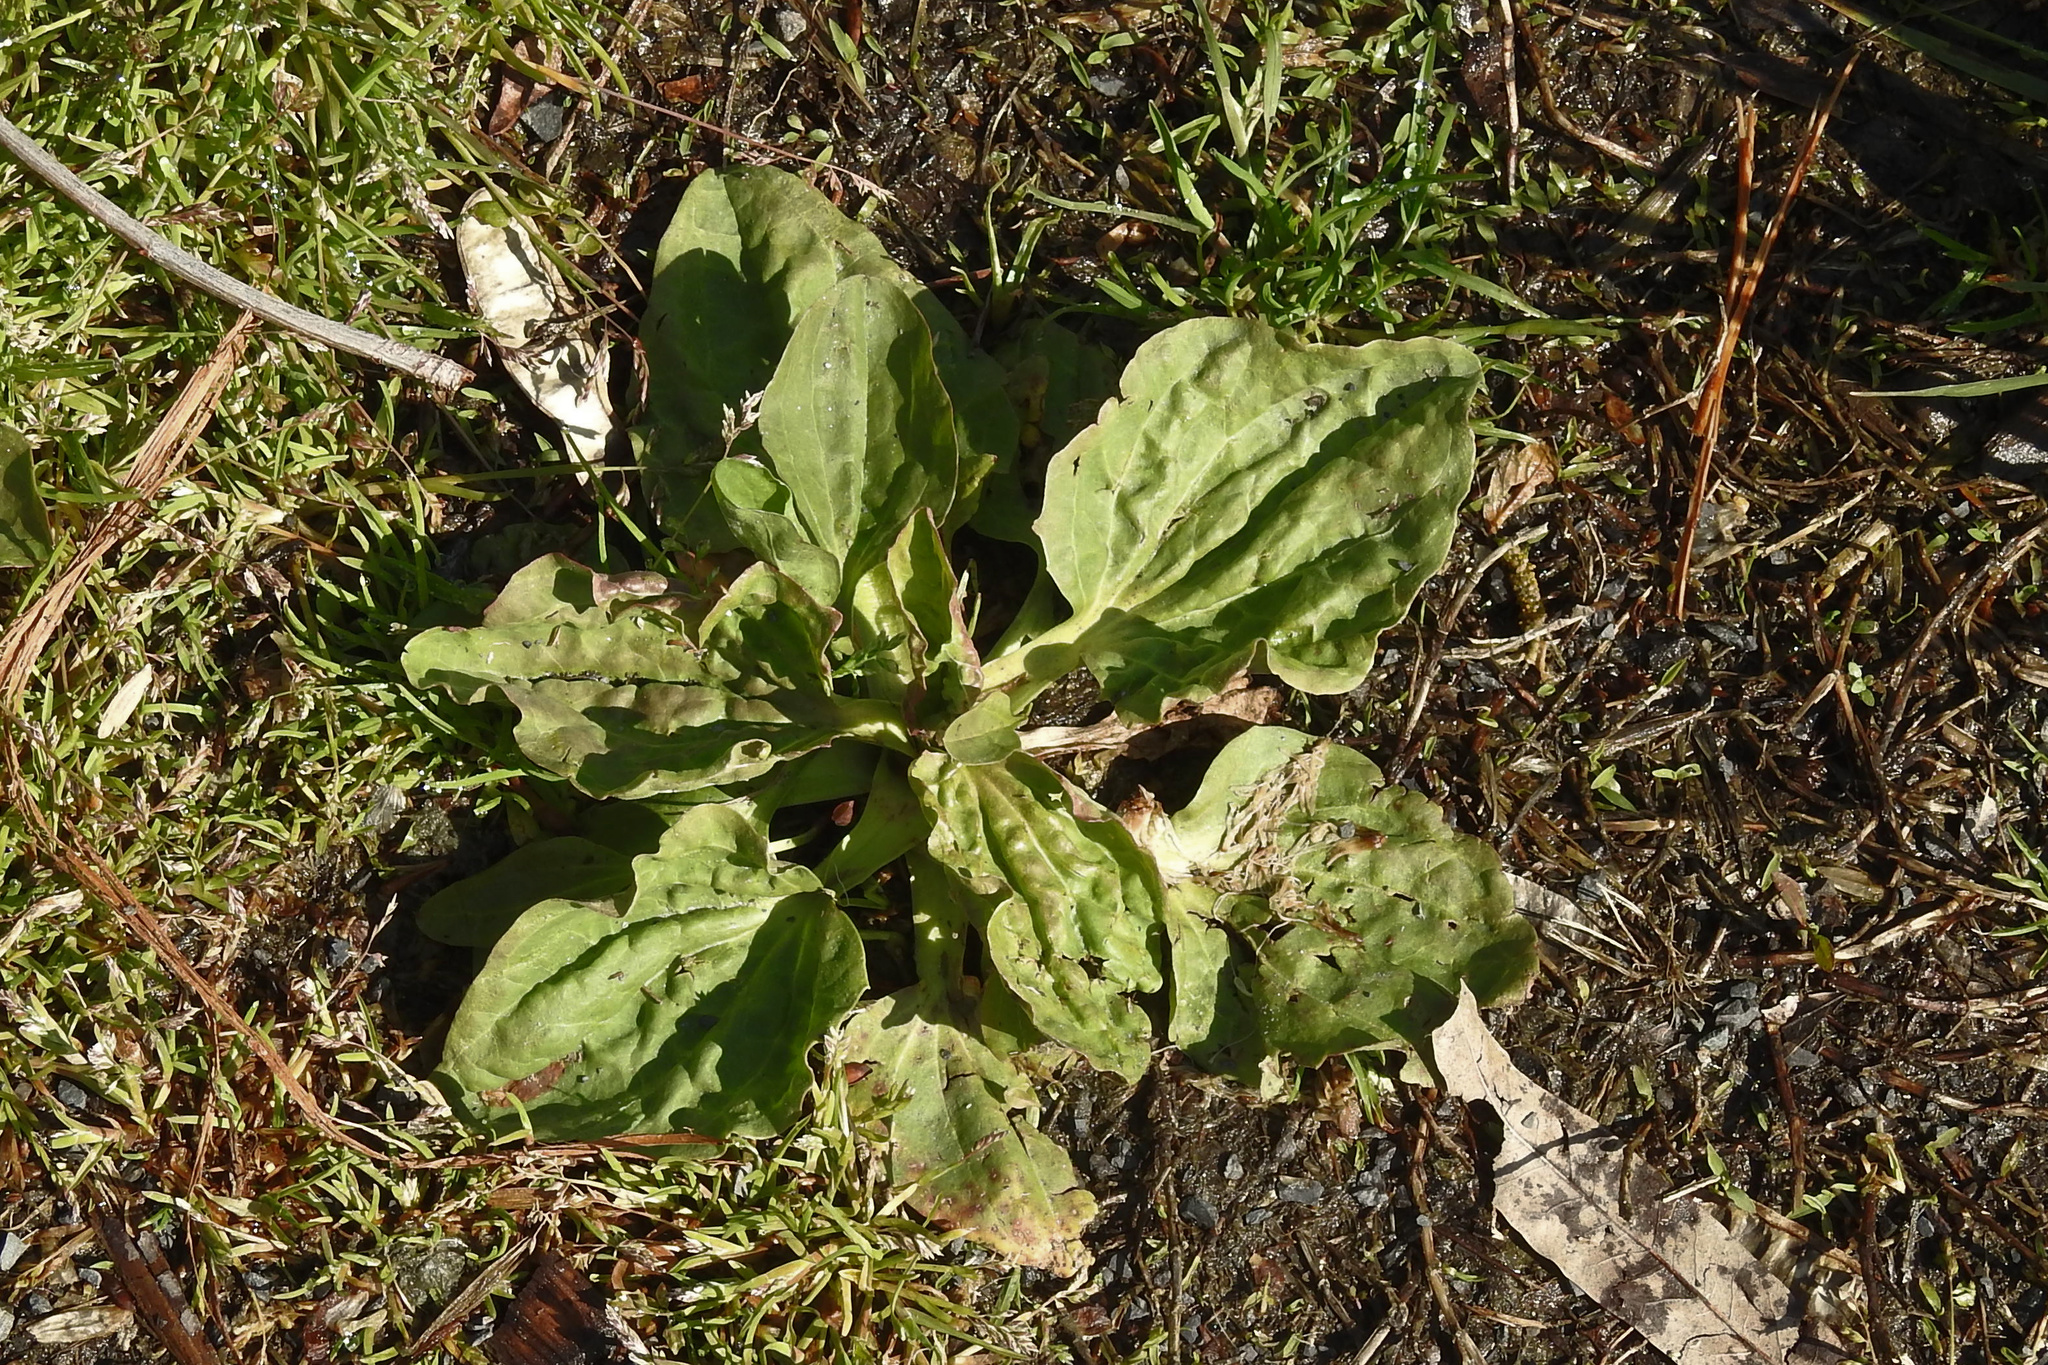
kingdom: Plantae
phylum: Tracheophyta
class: Magnoliopsida
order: Lamiales
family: Plantaginaceae
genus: Plantago
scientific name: Plantago major
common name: Common plantain
